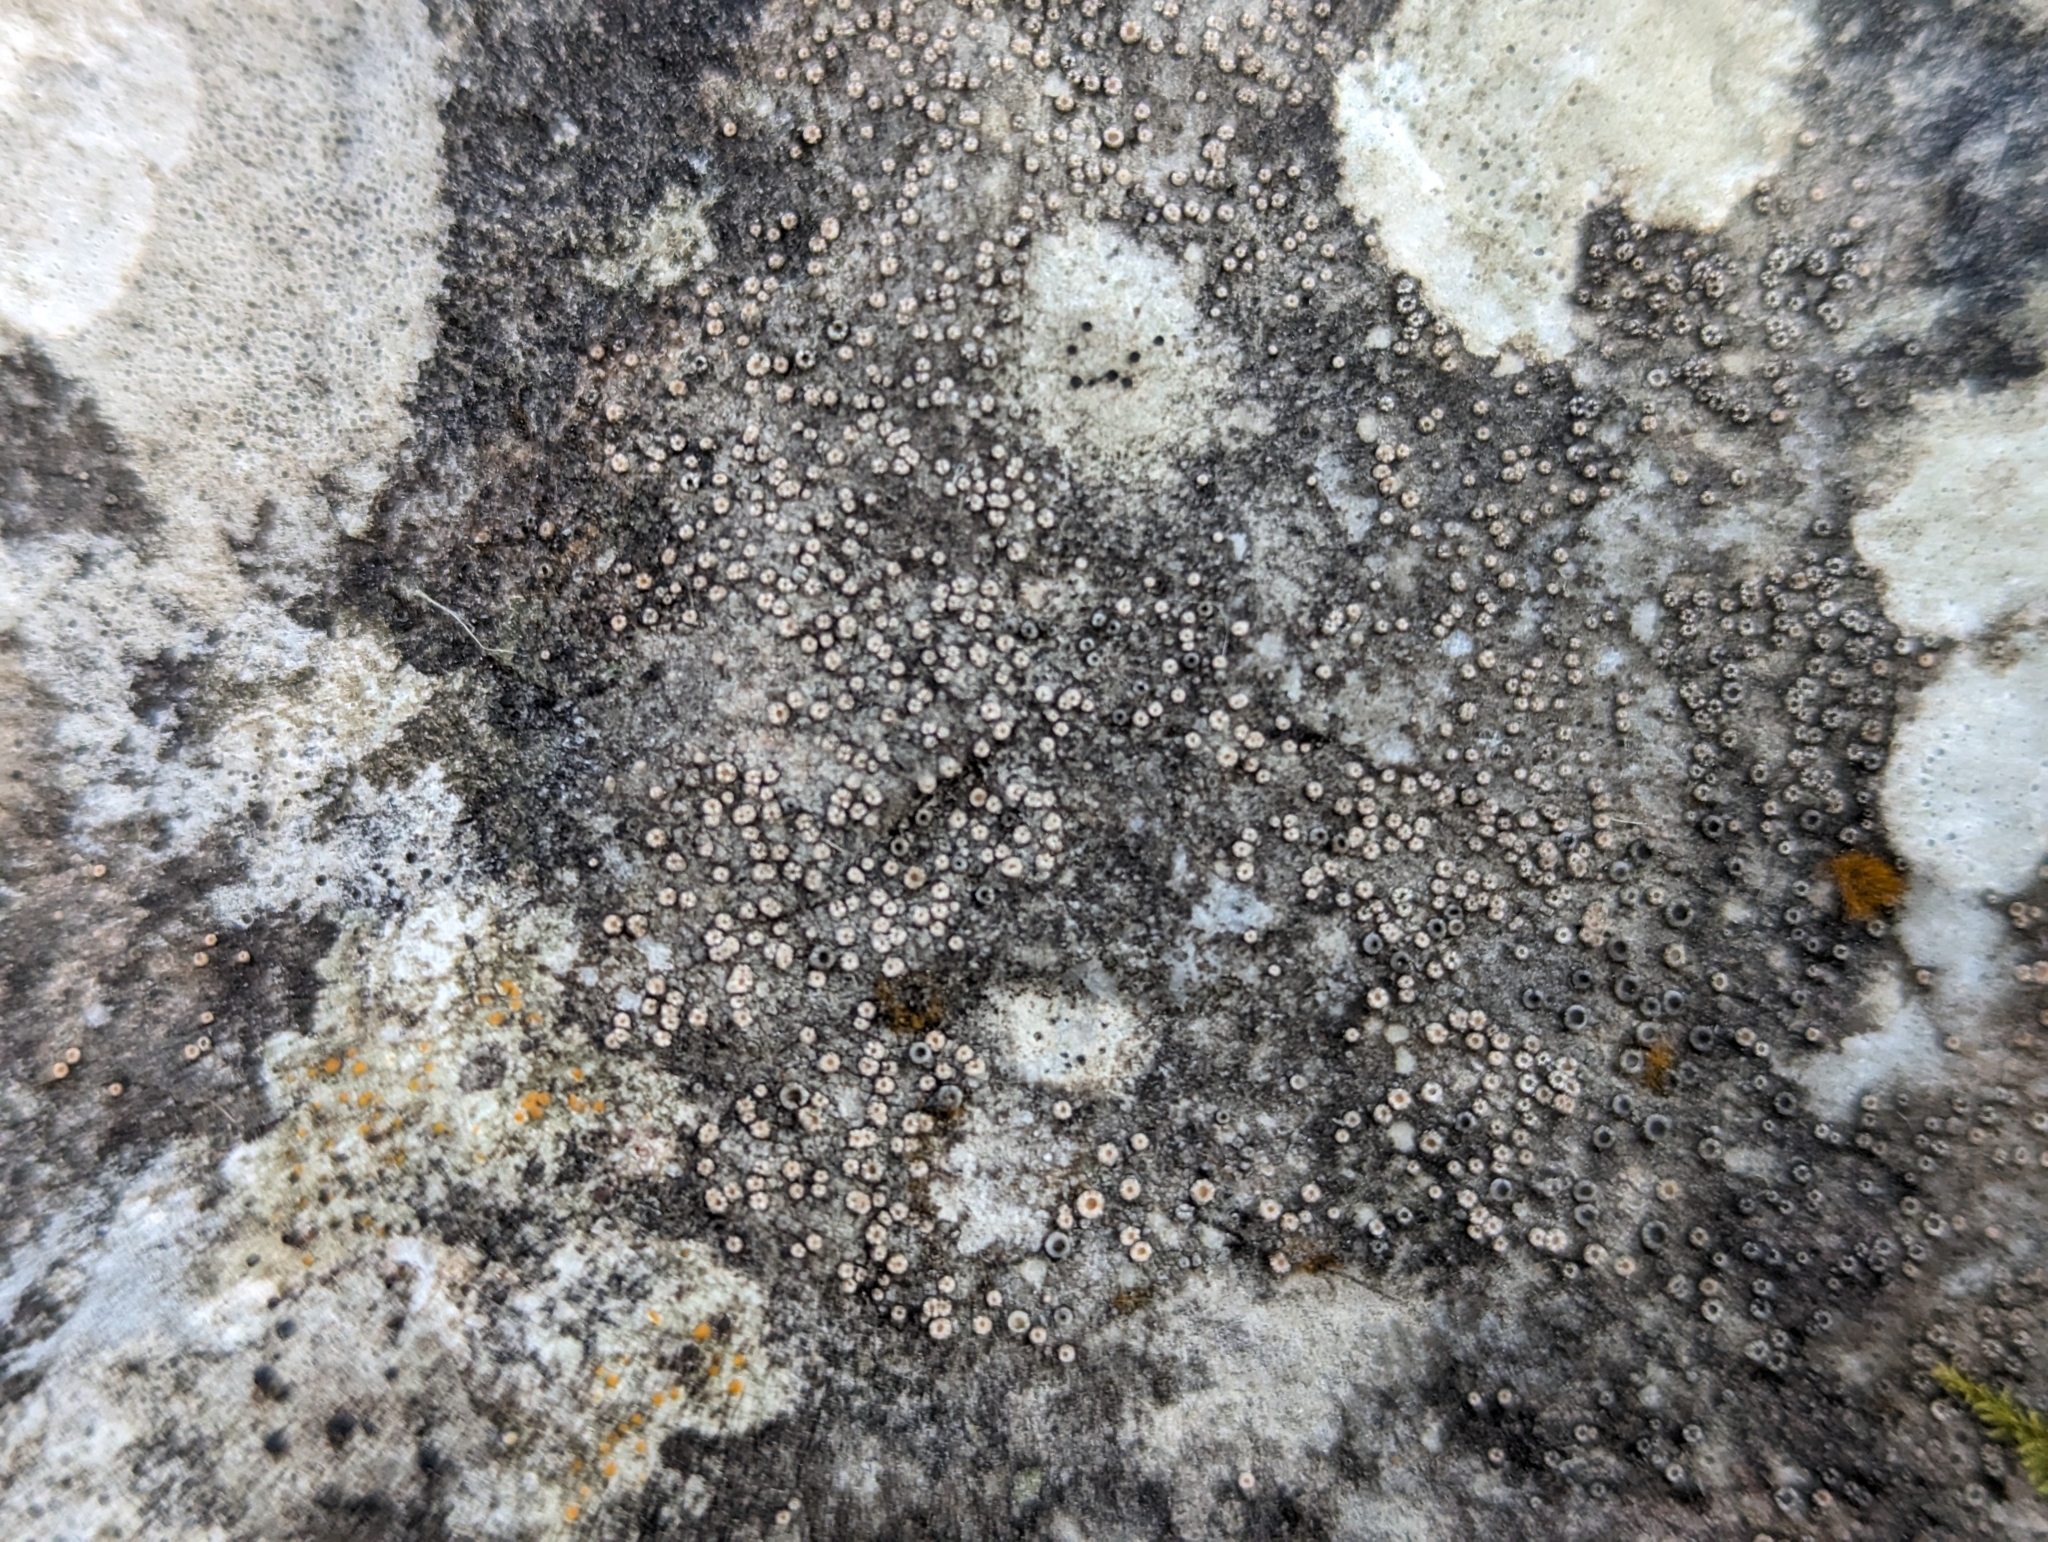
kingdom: Fungi
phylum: Ascomycota
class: Lecanoromycetes
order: Gyalectales
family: Gyalectaceae
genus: Gyalecta
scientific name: Gyalecta jenensis
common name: Rock dimple lichen
